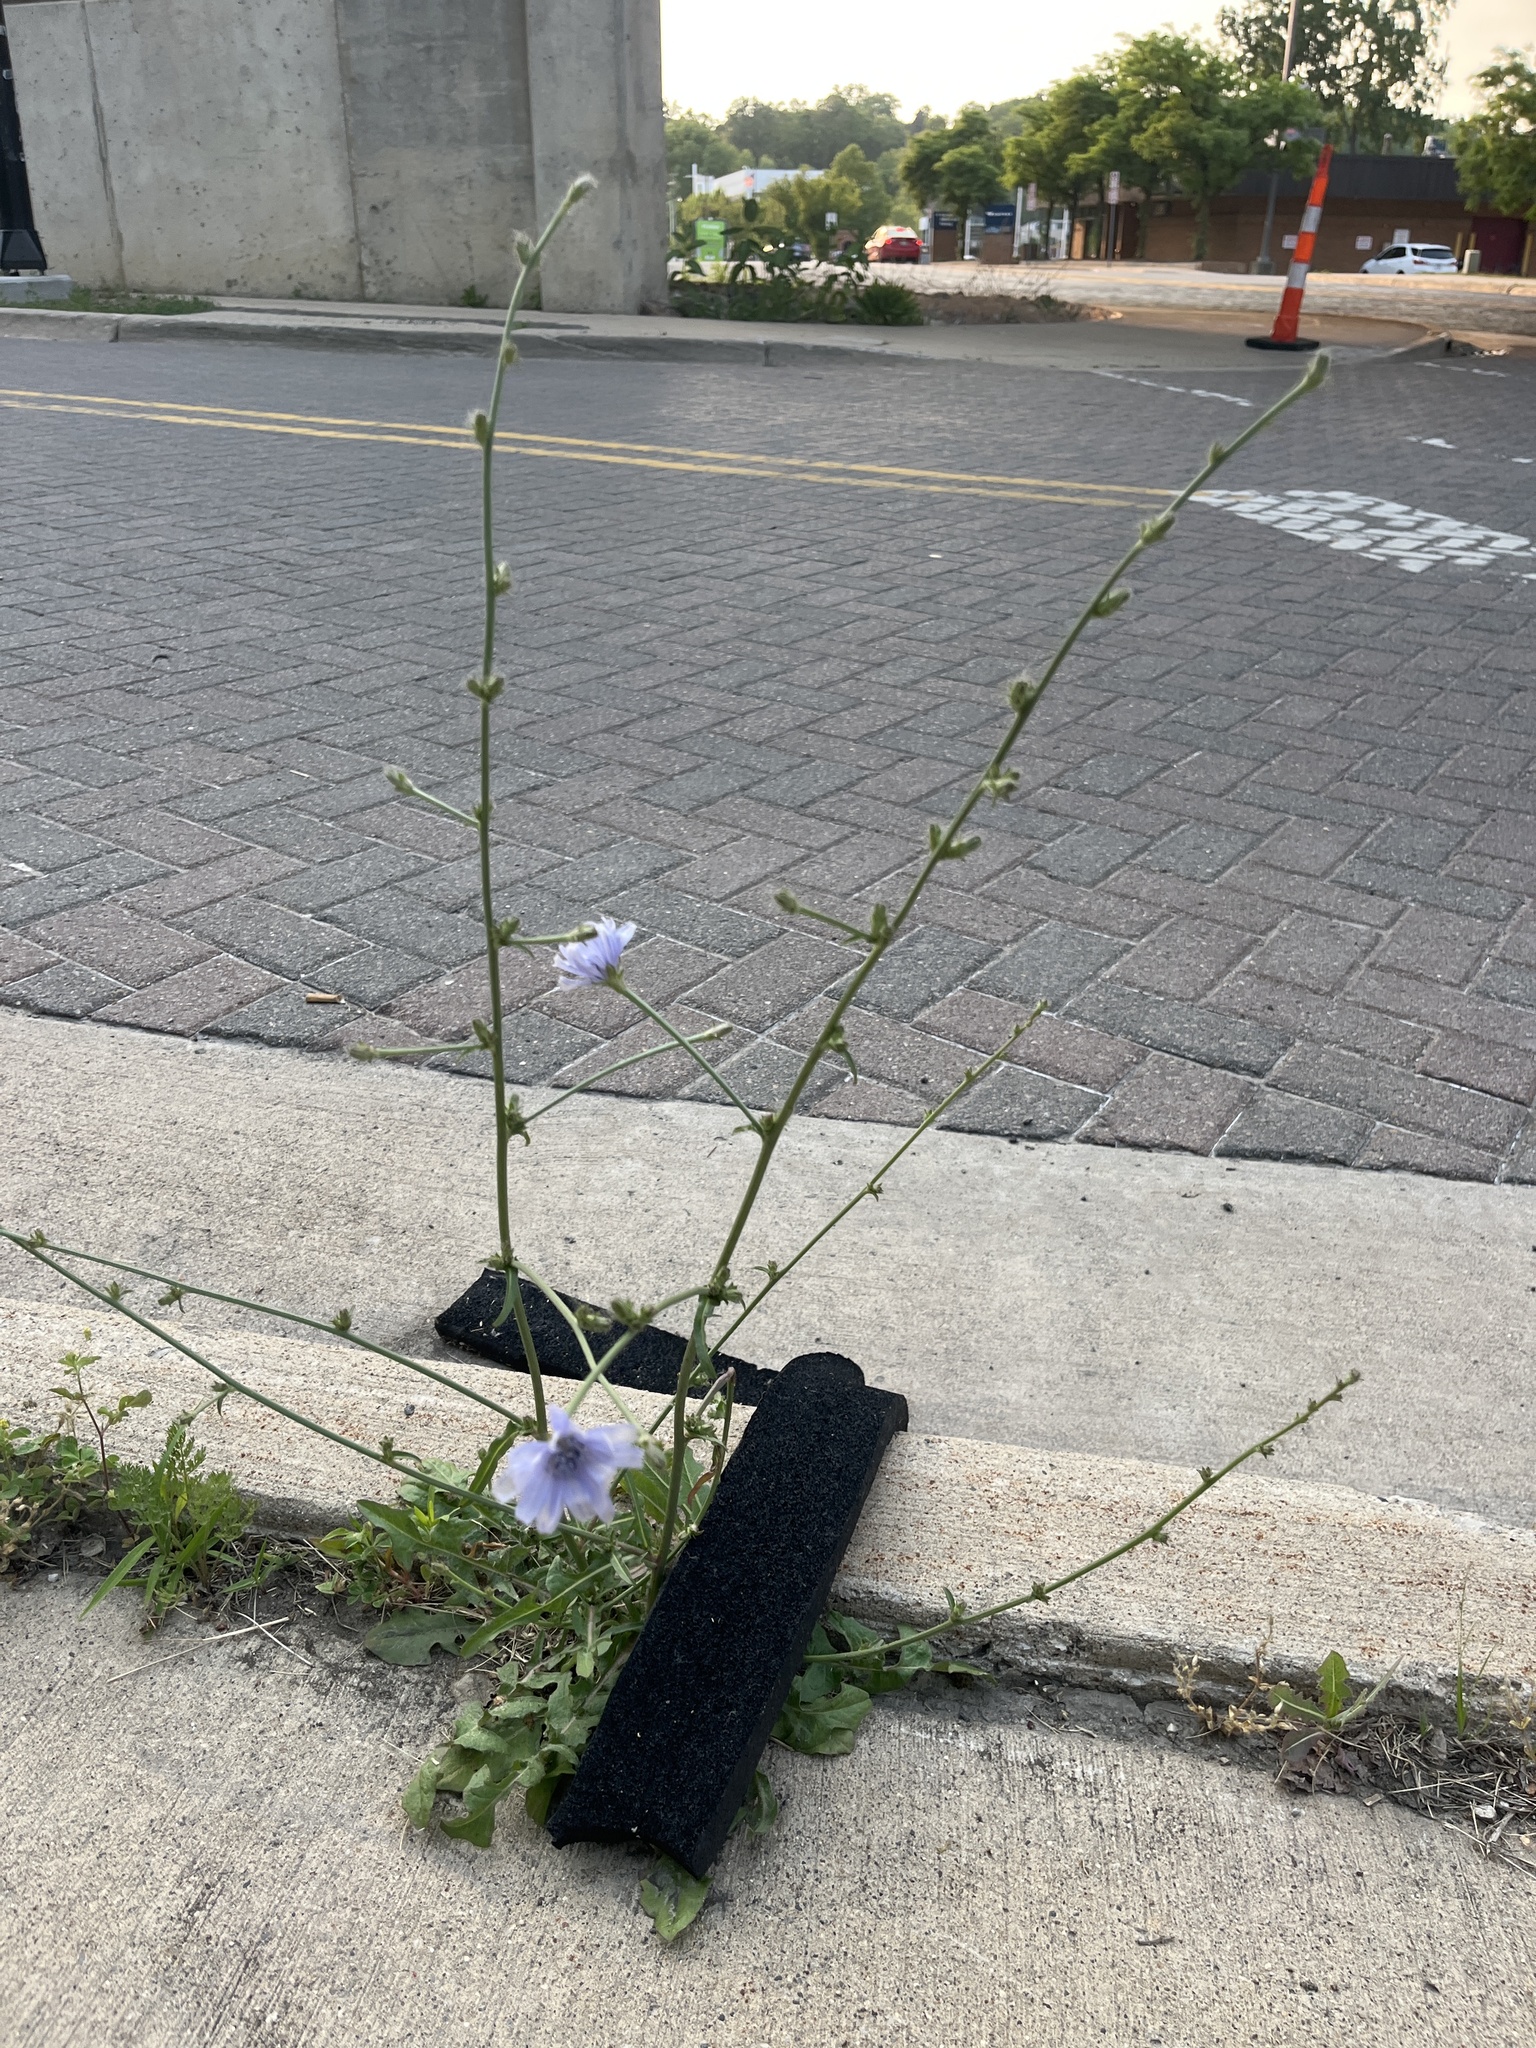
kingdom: Plantae
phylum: Tracheophyta
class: Magnoliopsida
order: Asterales
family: Asteraceae
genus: Cichorium
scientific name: Cichorium intybus
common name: Chicory
